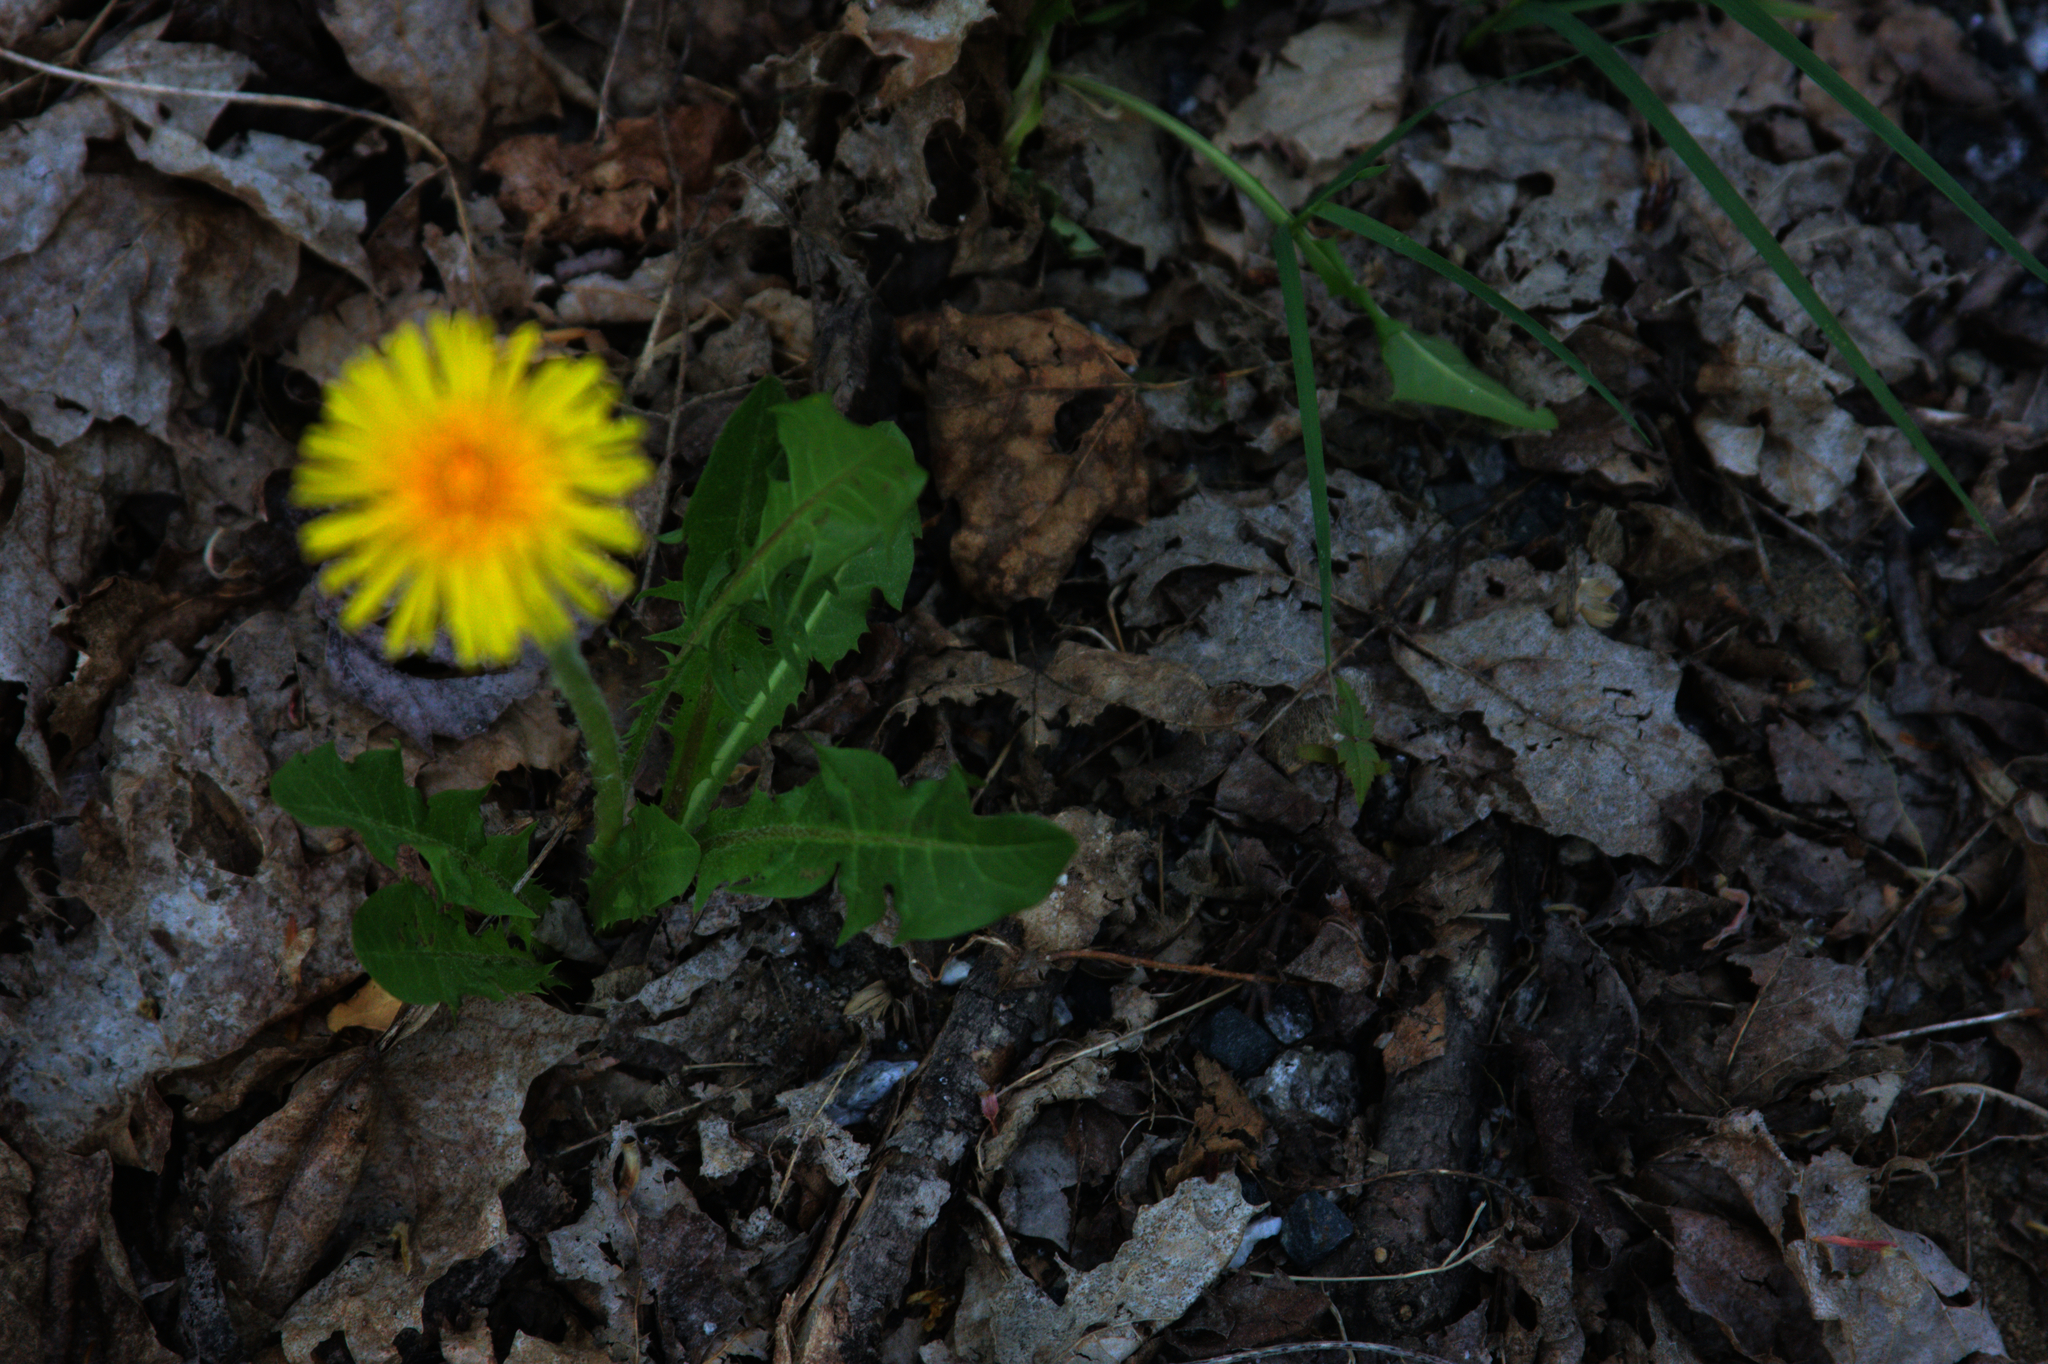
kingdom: Plantae
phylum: Tracheophyta
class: Magnoliopsida
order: Asterales
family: Asteraceae
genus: Taraxacum
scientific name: Taraxacum officinale
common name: Common dandelion
